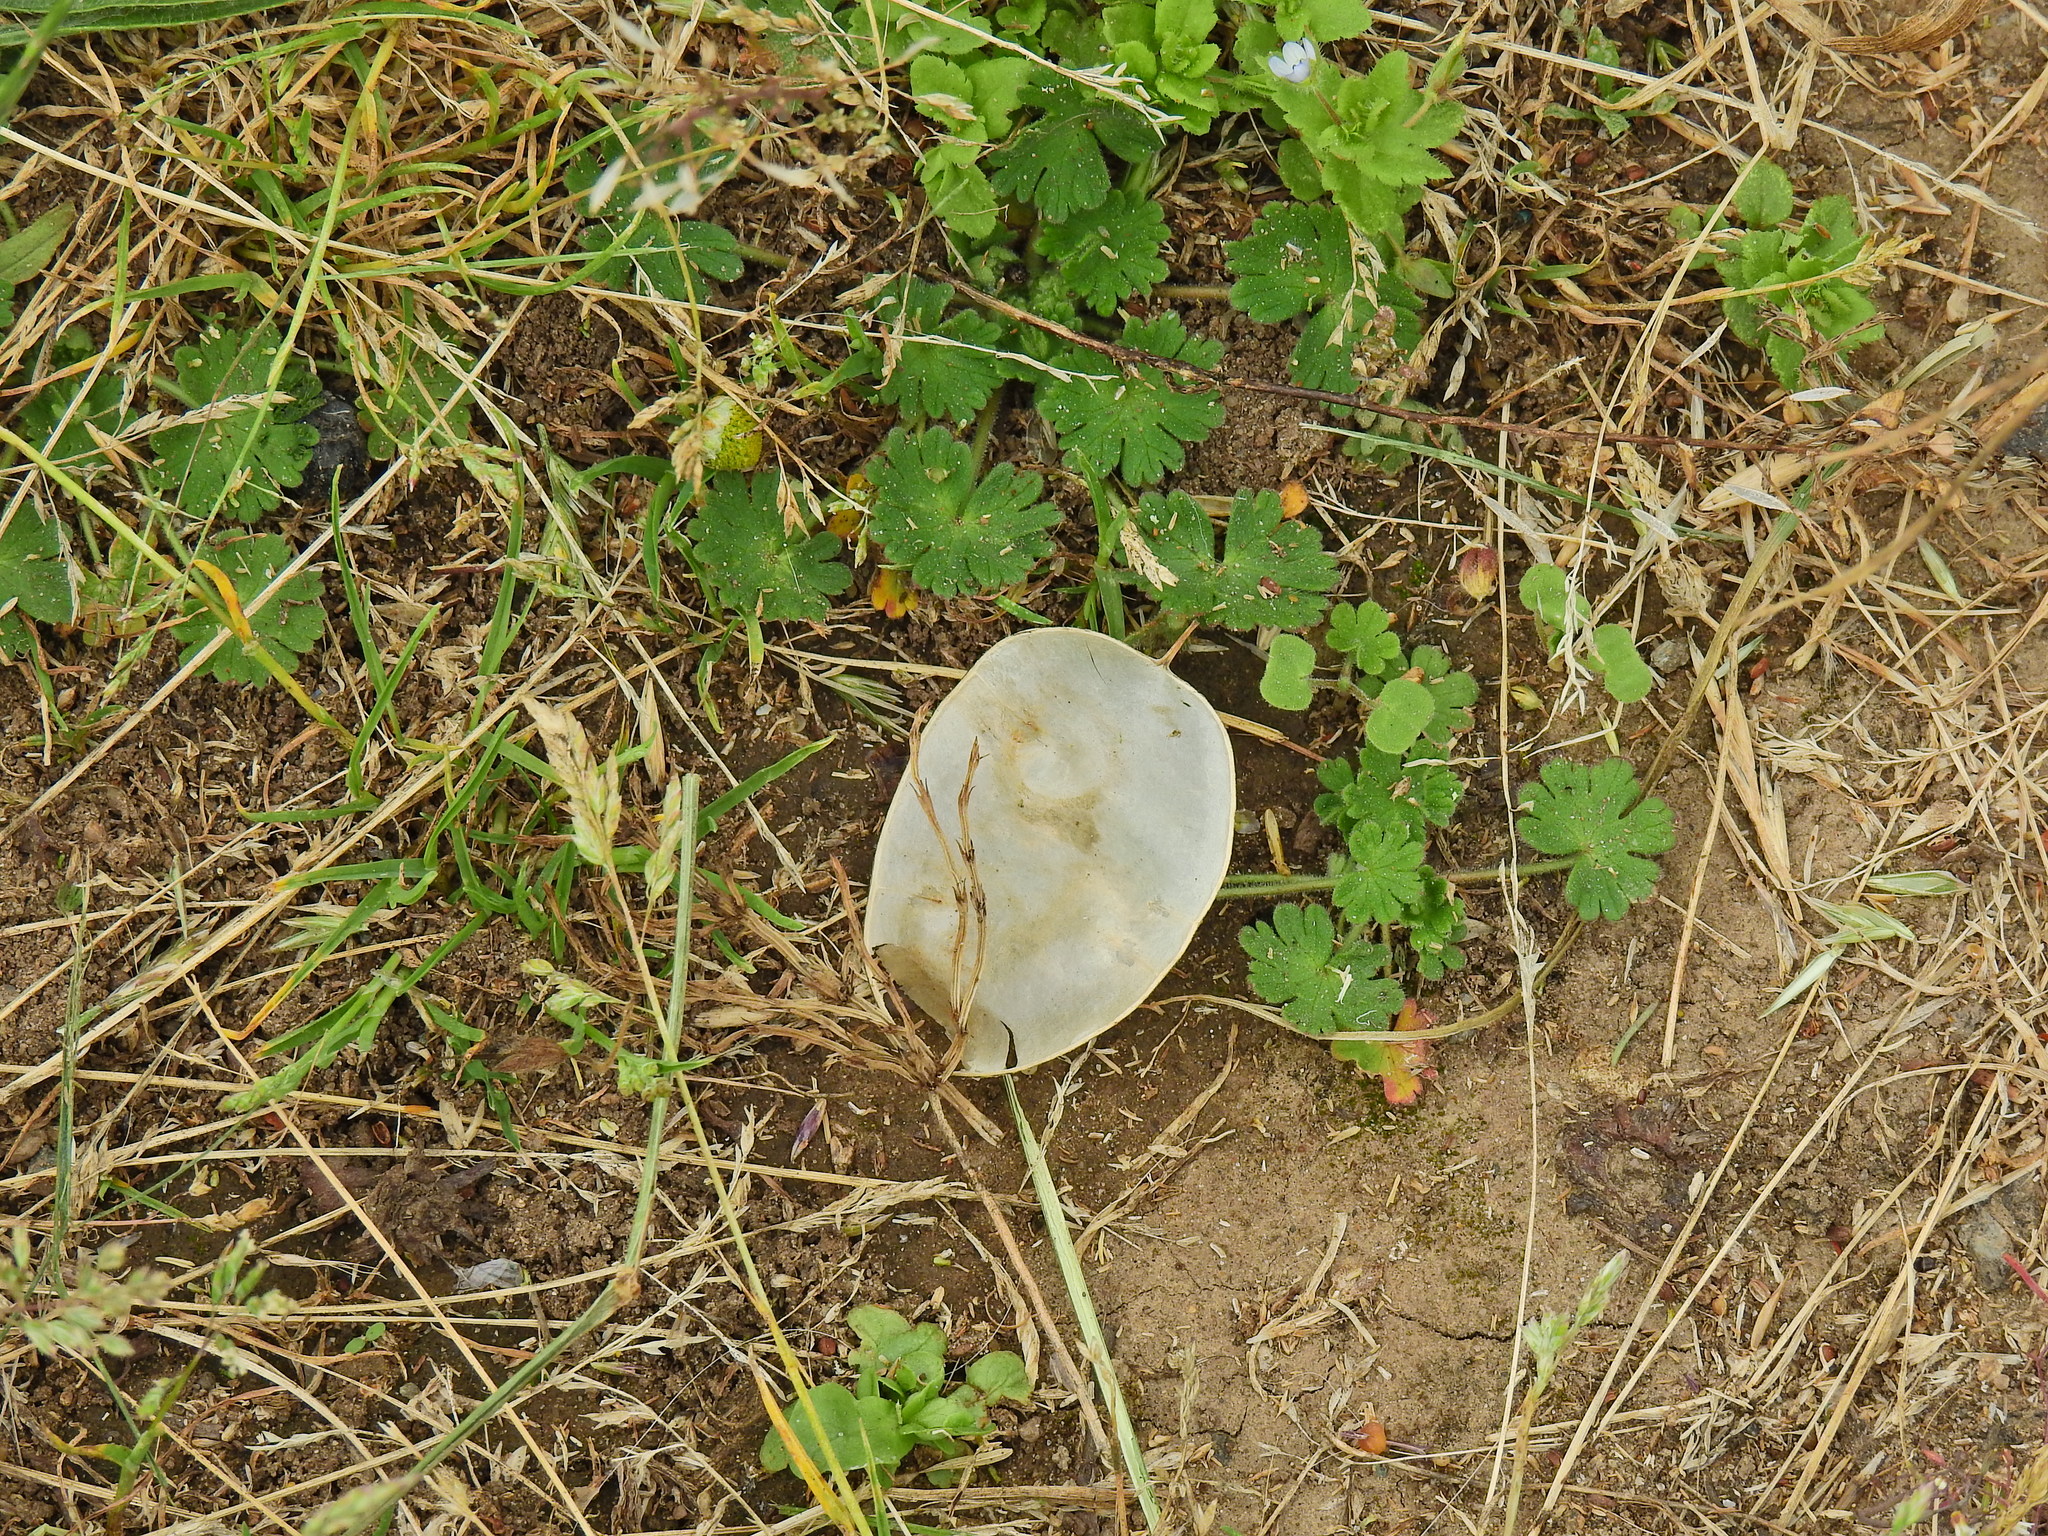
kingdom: Plantae
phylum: Tracheophyta
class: Magnoliopsida
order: Brassicales
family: Brassicaceae
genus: Lunaria
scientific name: Lunaria annua
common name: Honesty
